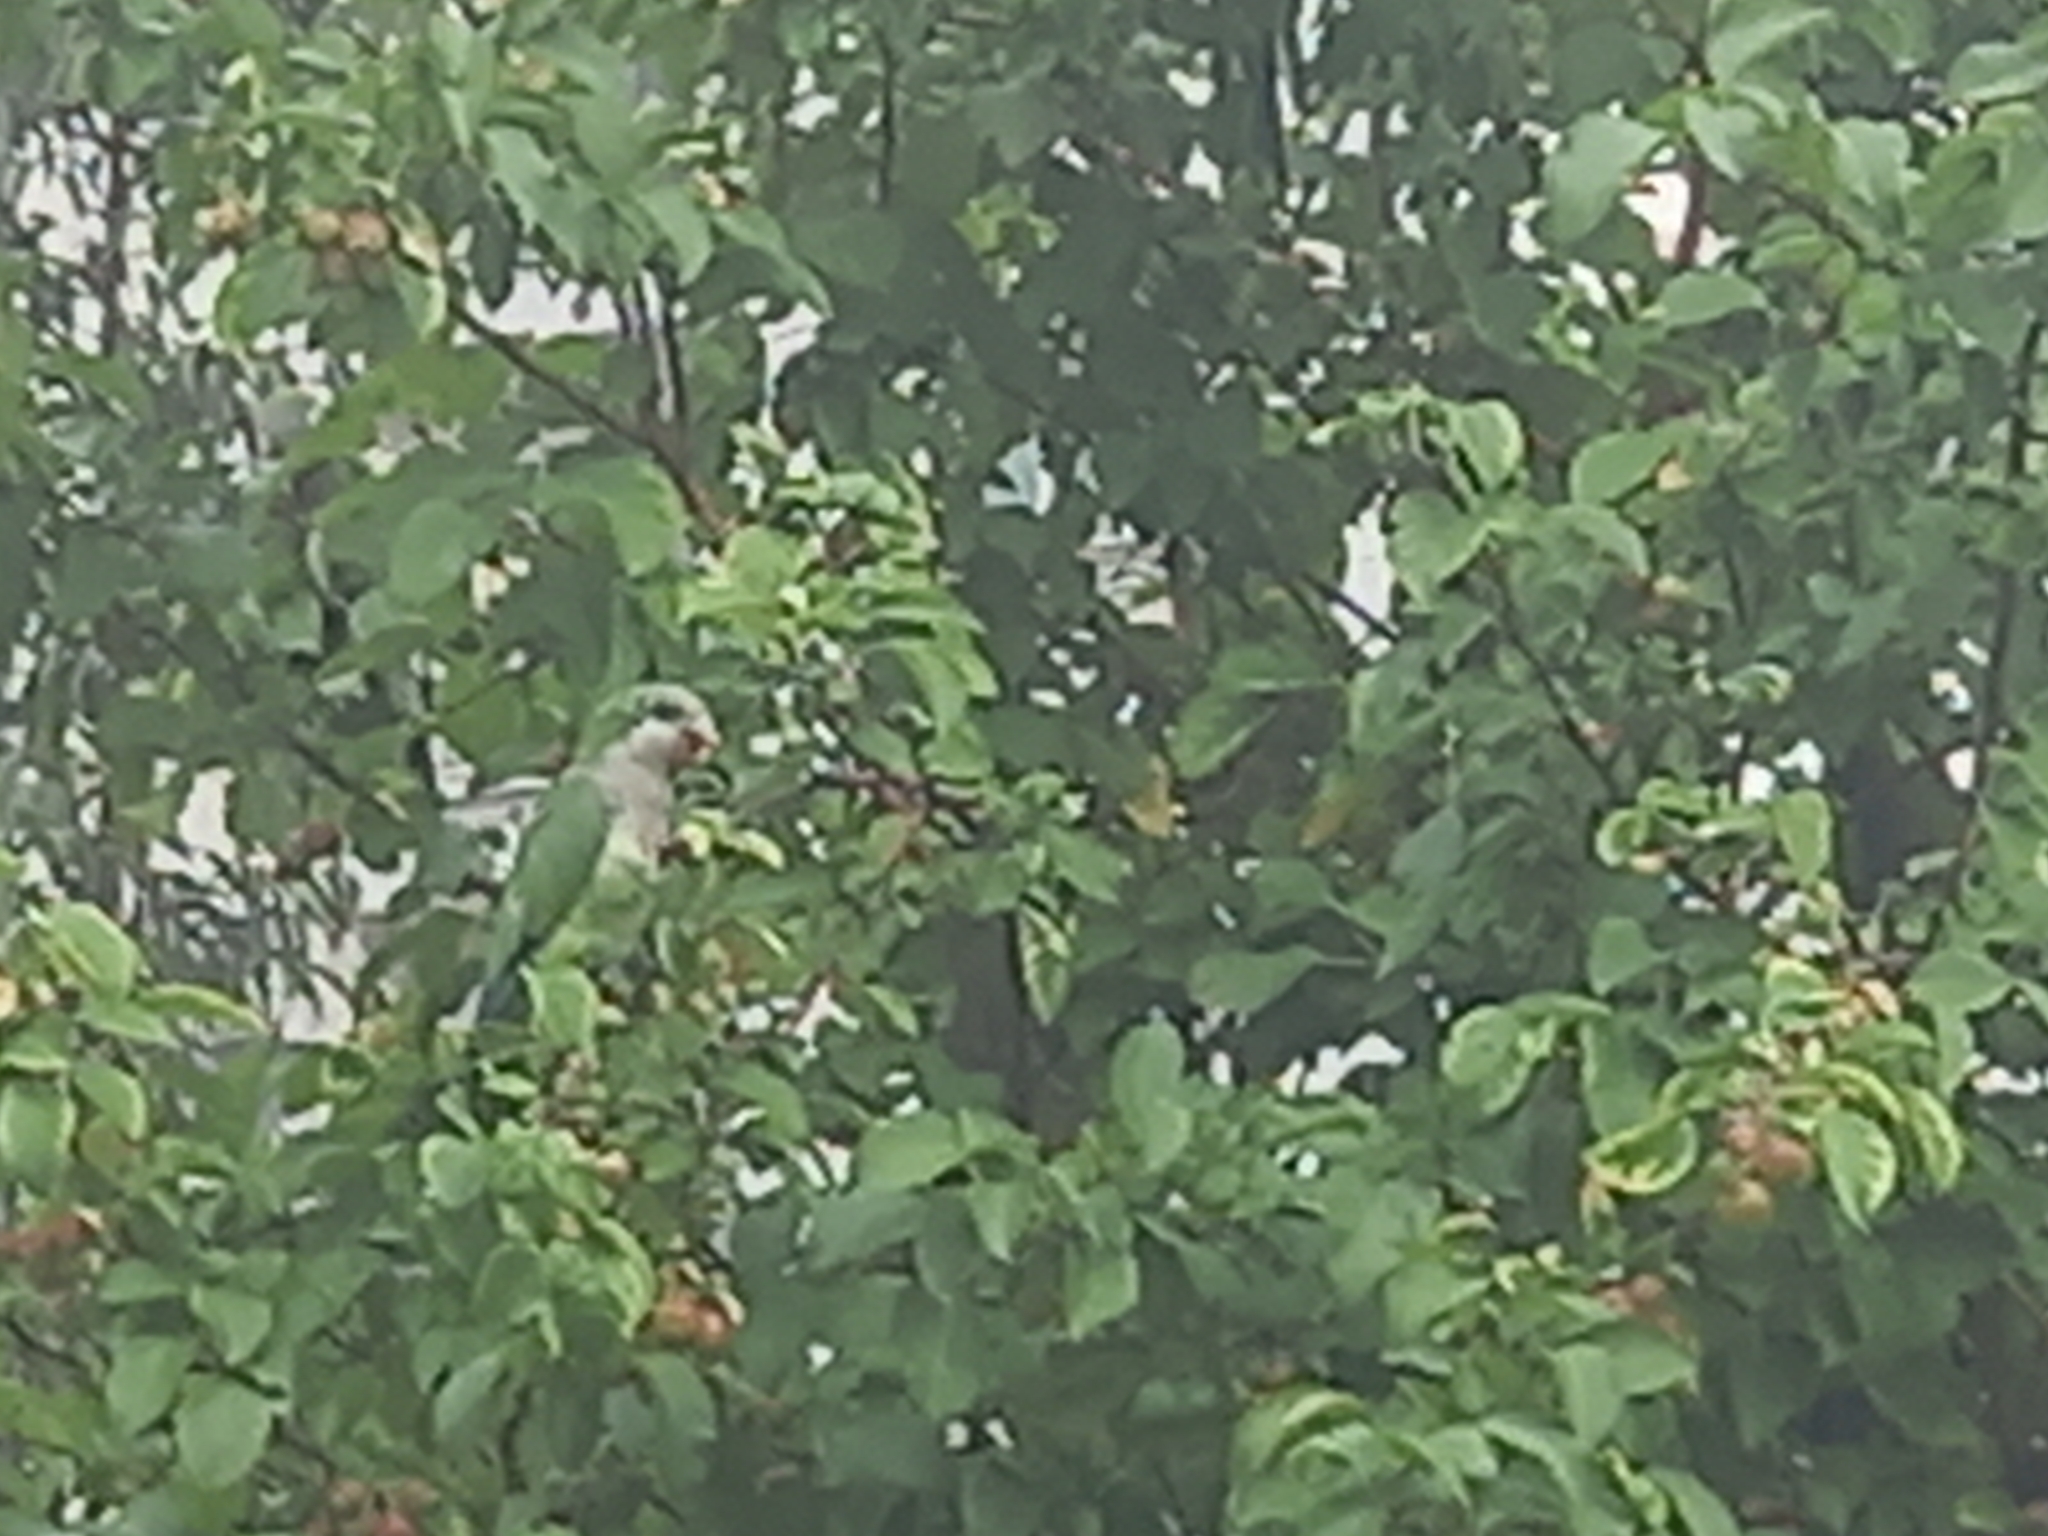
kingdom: Animalia
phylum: Chordata
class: Aves
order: Psittaciformes
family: Psittacidae
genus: Myiopsitta
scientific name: Myiopsitta monachus
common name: Monk parakeet
